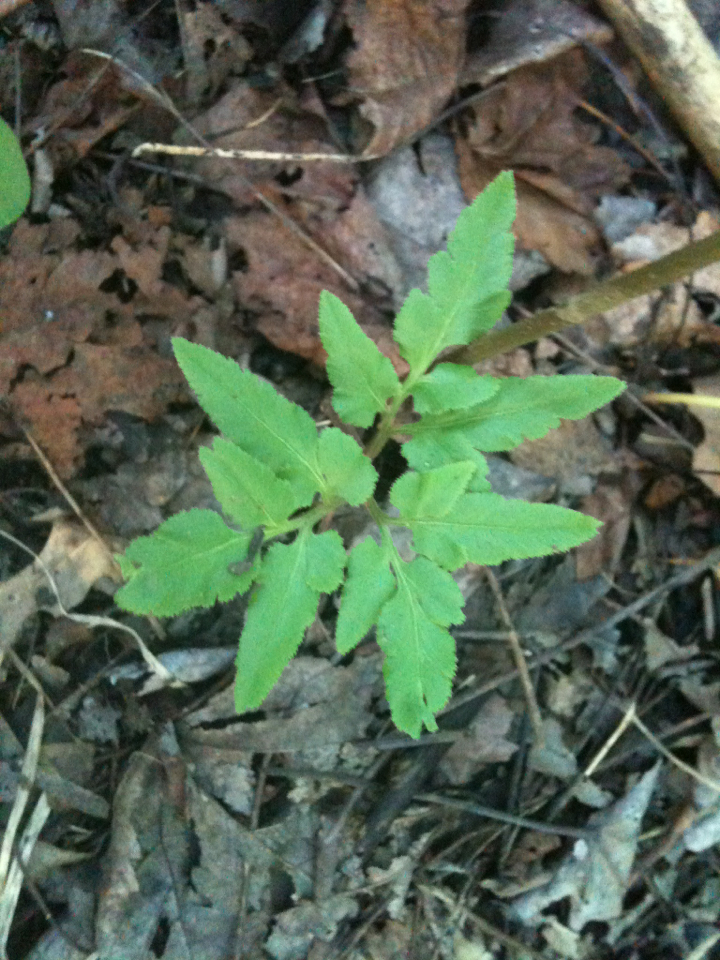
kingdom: Plantae
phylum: Tracheophyta
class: Polypodiopsida
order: Ophioglossales
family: Ophioglossaceae
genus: Sceptridium
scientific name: Sceptridium biternatum
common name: Sparse-lobed grapefern
